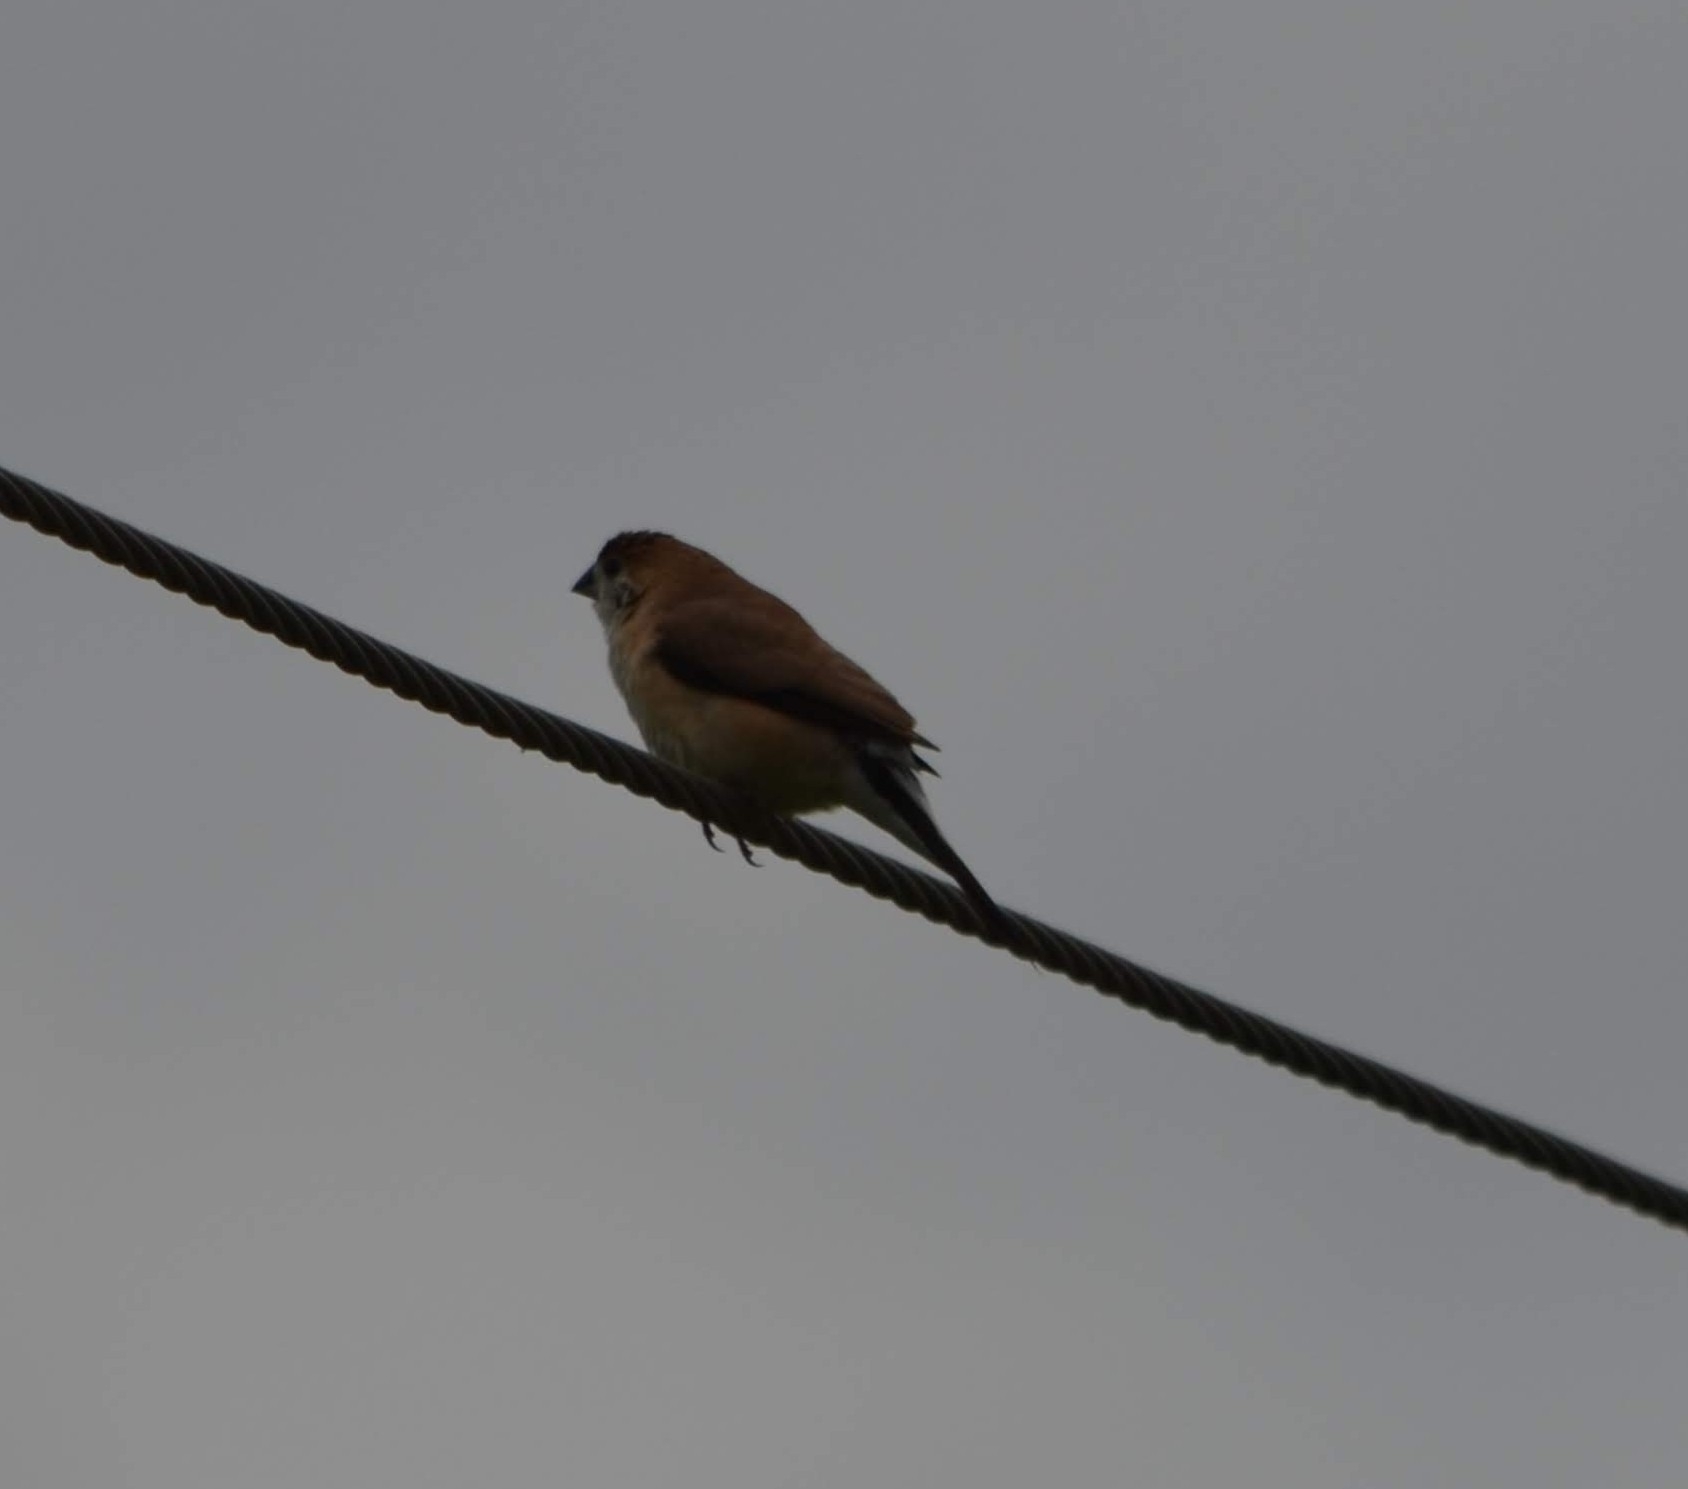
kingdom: Animalia
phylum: Chordata
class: Aves
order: Passeriformes
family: Estrildidae
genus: Euodice
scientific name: Euodice malabarica
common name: Indian silverbill
